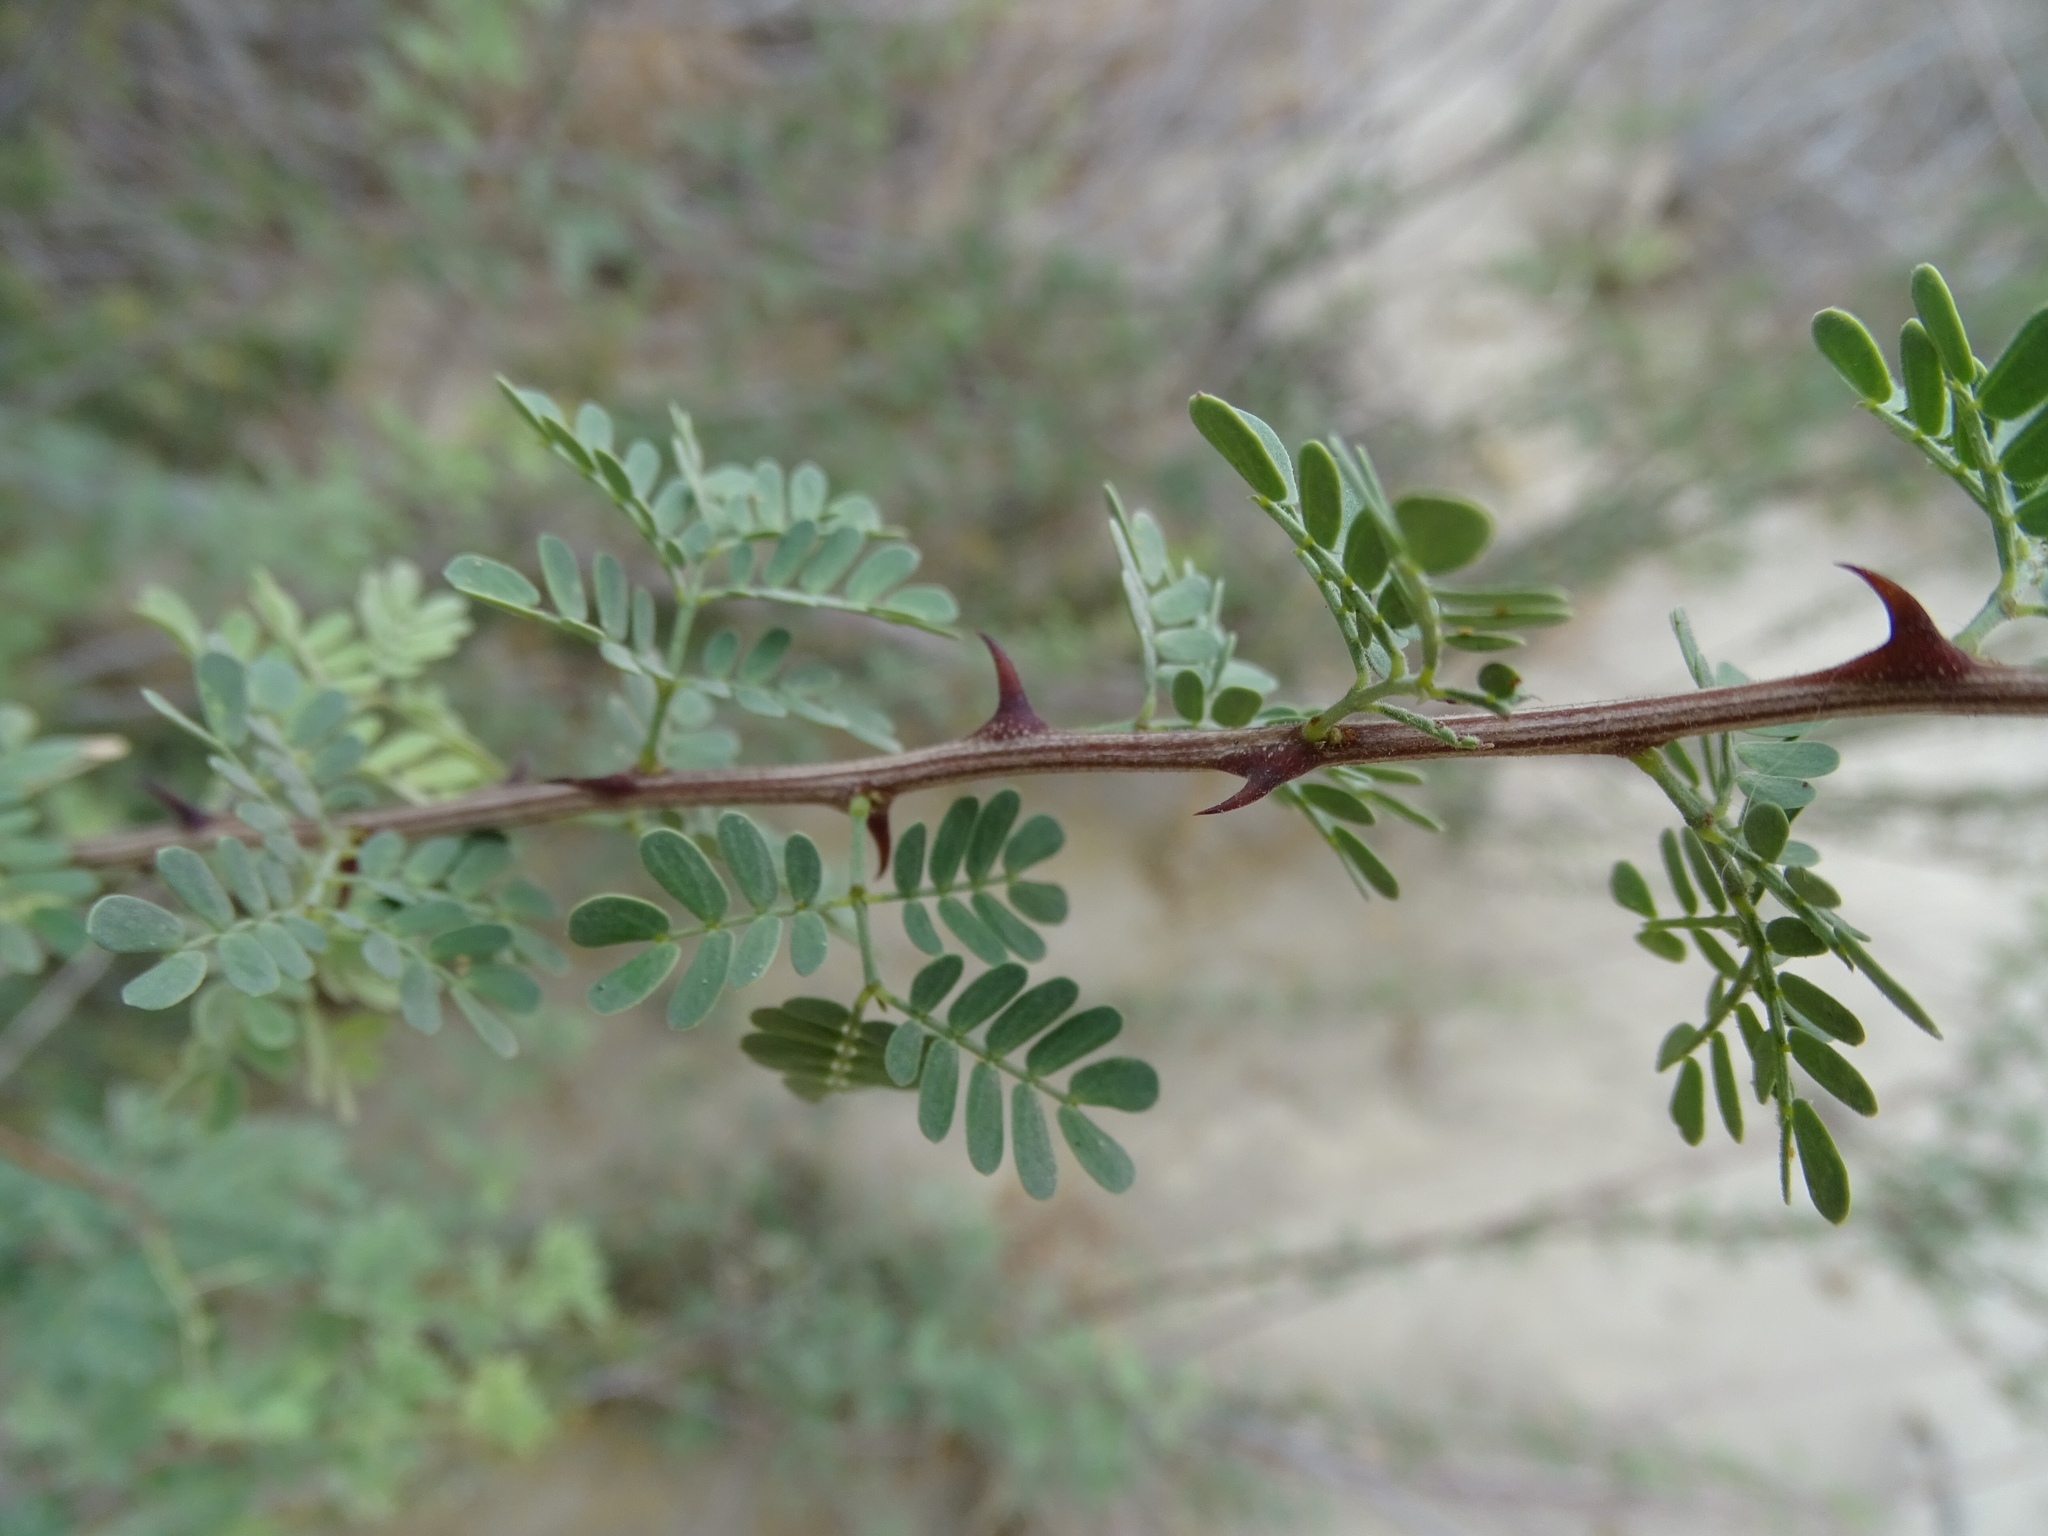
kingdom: Plantae
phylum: Tracheophyta
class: Magnoliopsida
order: Fabales
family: Fabaceae
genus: Senegalia
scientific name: Senegalia greggii
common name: Texas-mimosa
